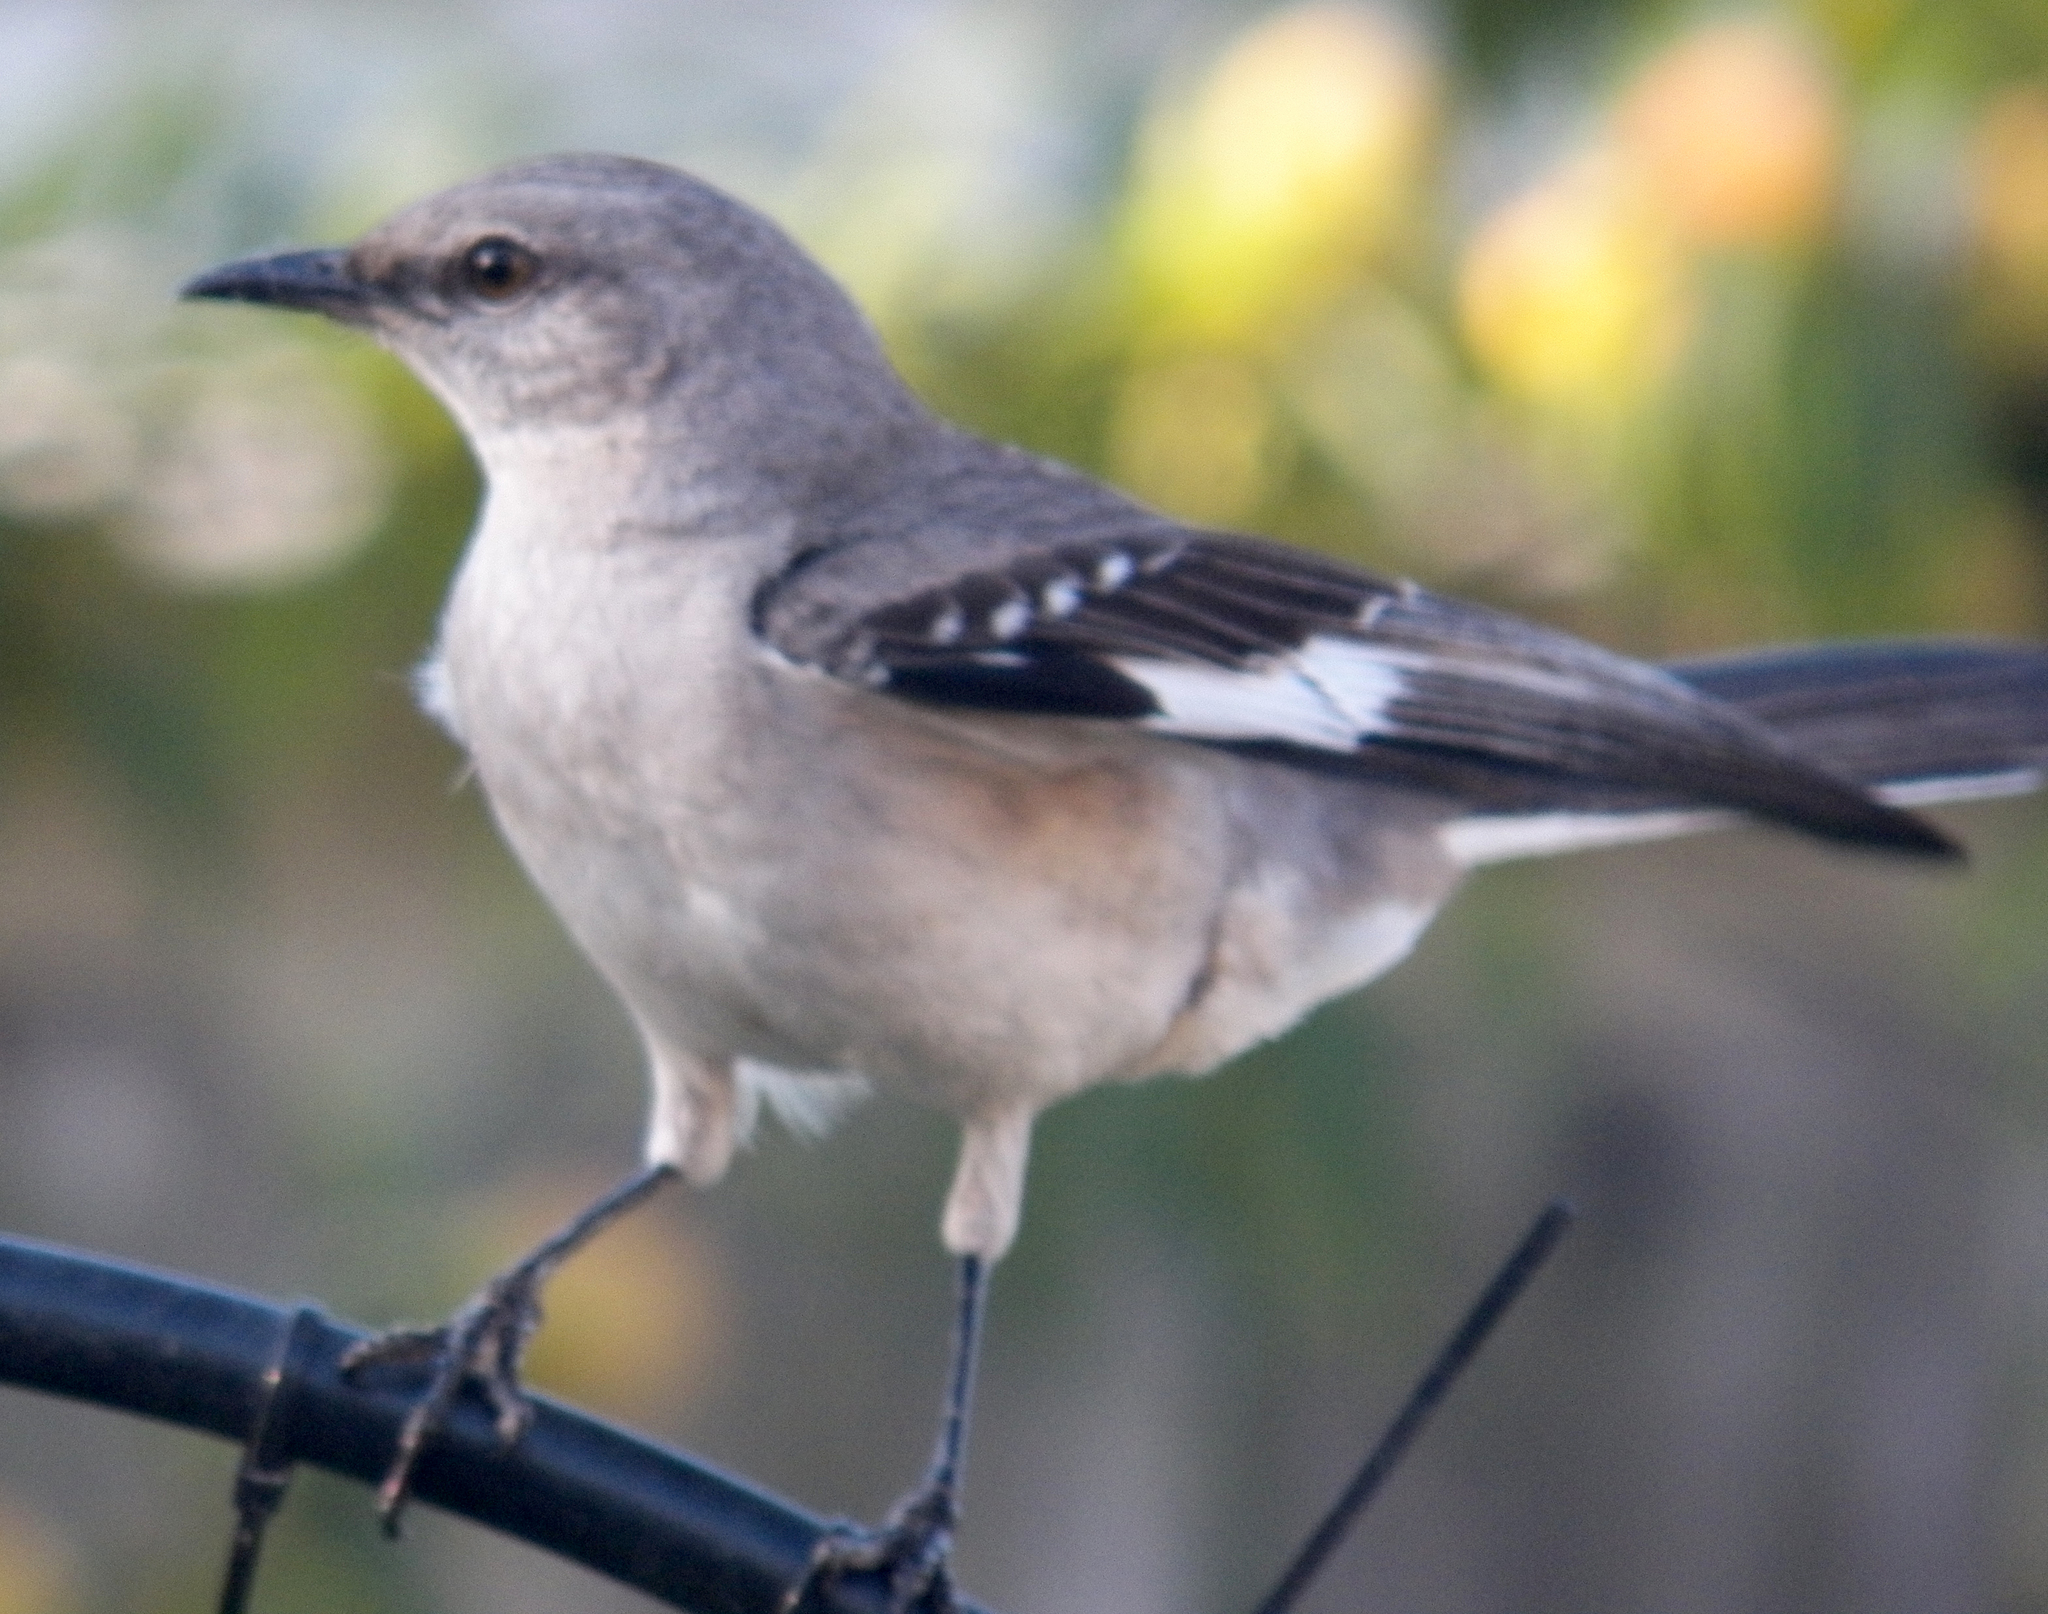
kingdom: Animalia
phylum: Chordata
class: Aves
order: Passeriformes
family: Mimidae
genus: Mimus
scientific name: Mimus polyglottos
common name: Northern mockingbird
